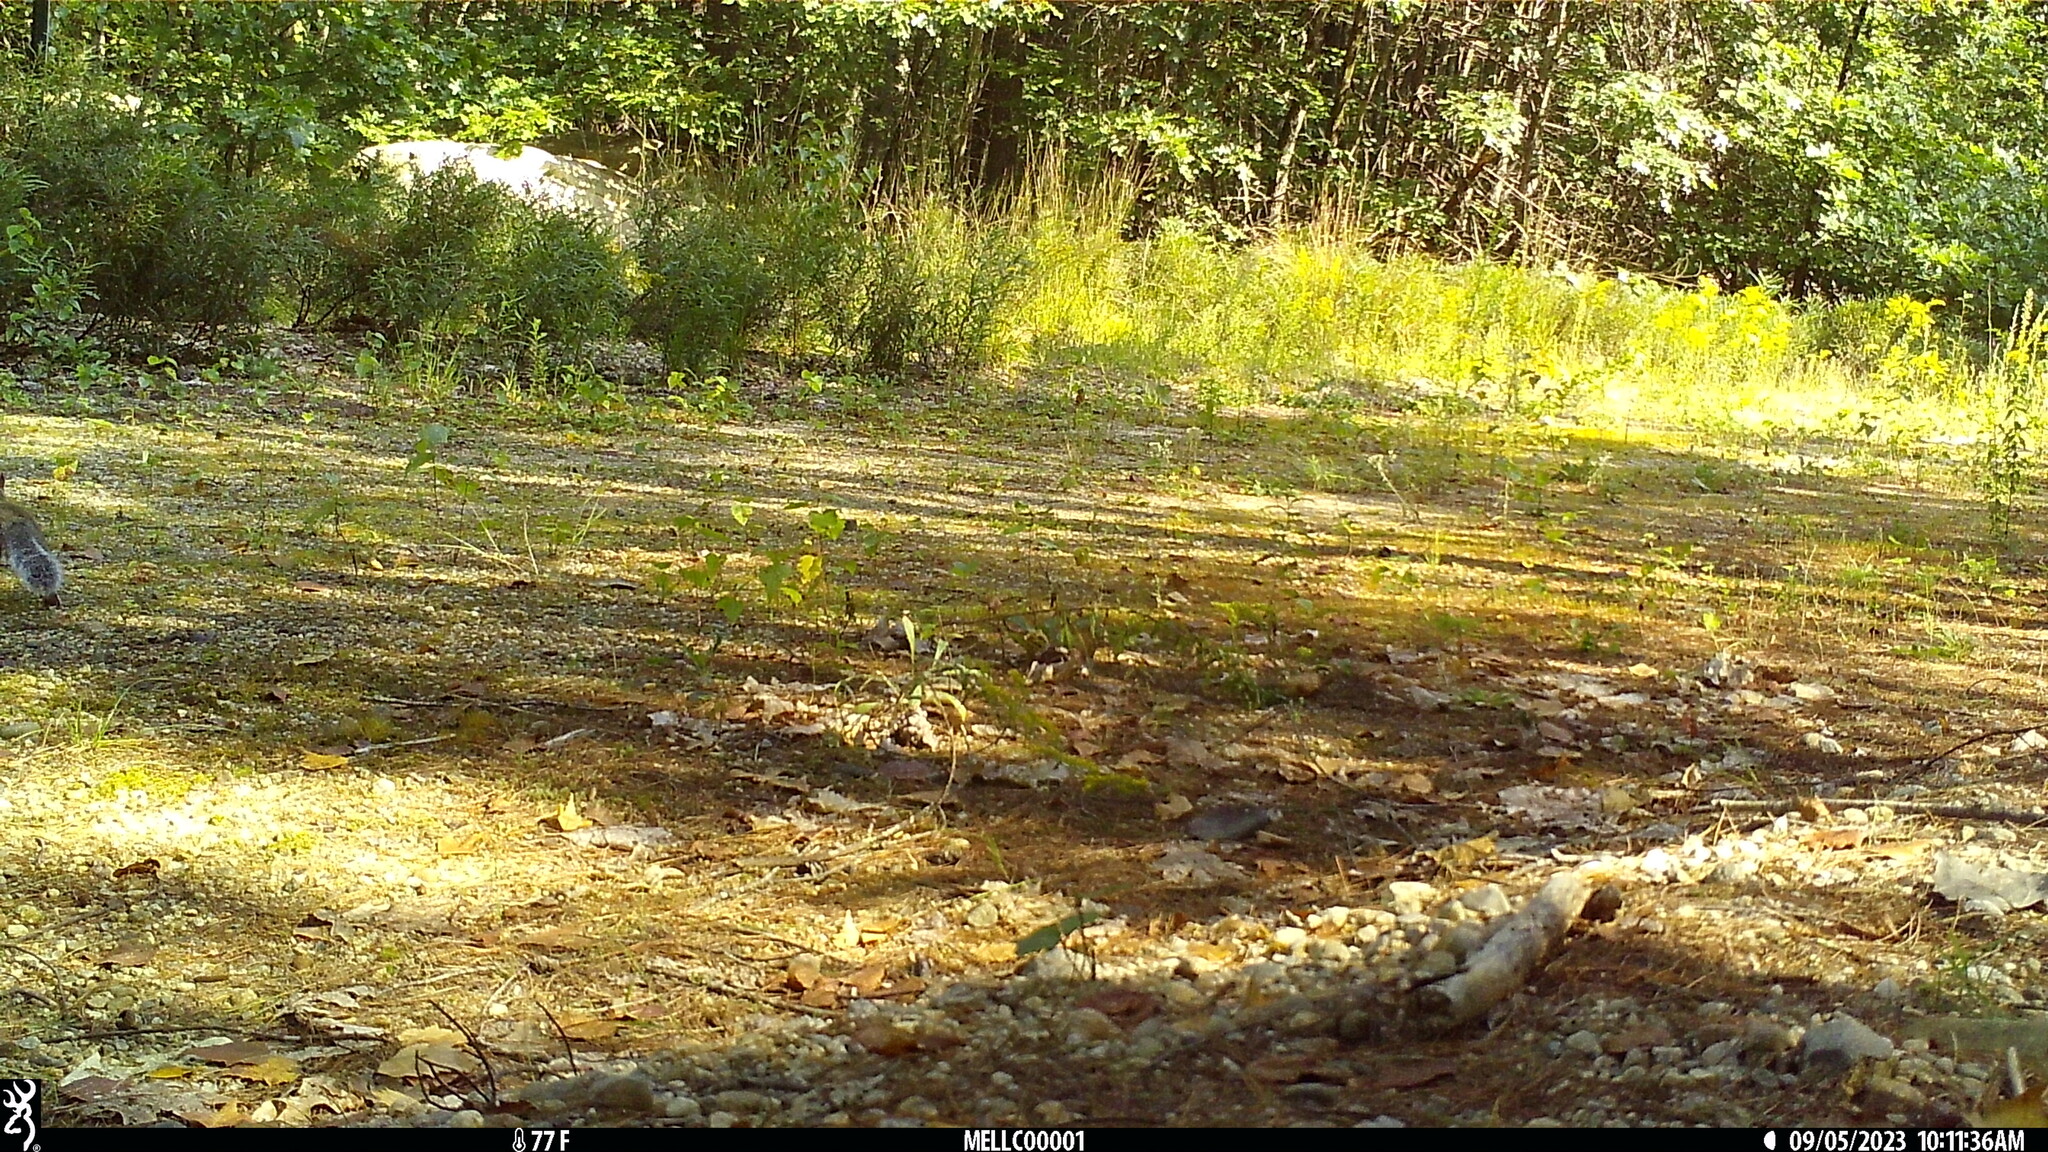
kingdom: Animalia
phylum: Chordata
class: Mammalia
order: Rodentia
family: Sciuridae
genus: Sciurus
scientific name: Sciurus carolinensis
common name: Eastern gray squirrel
